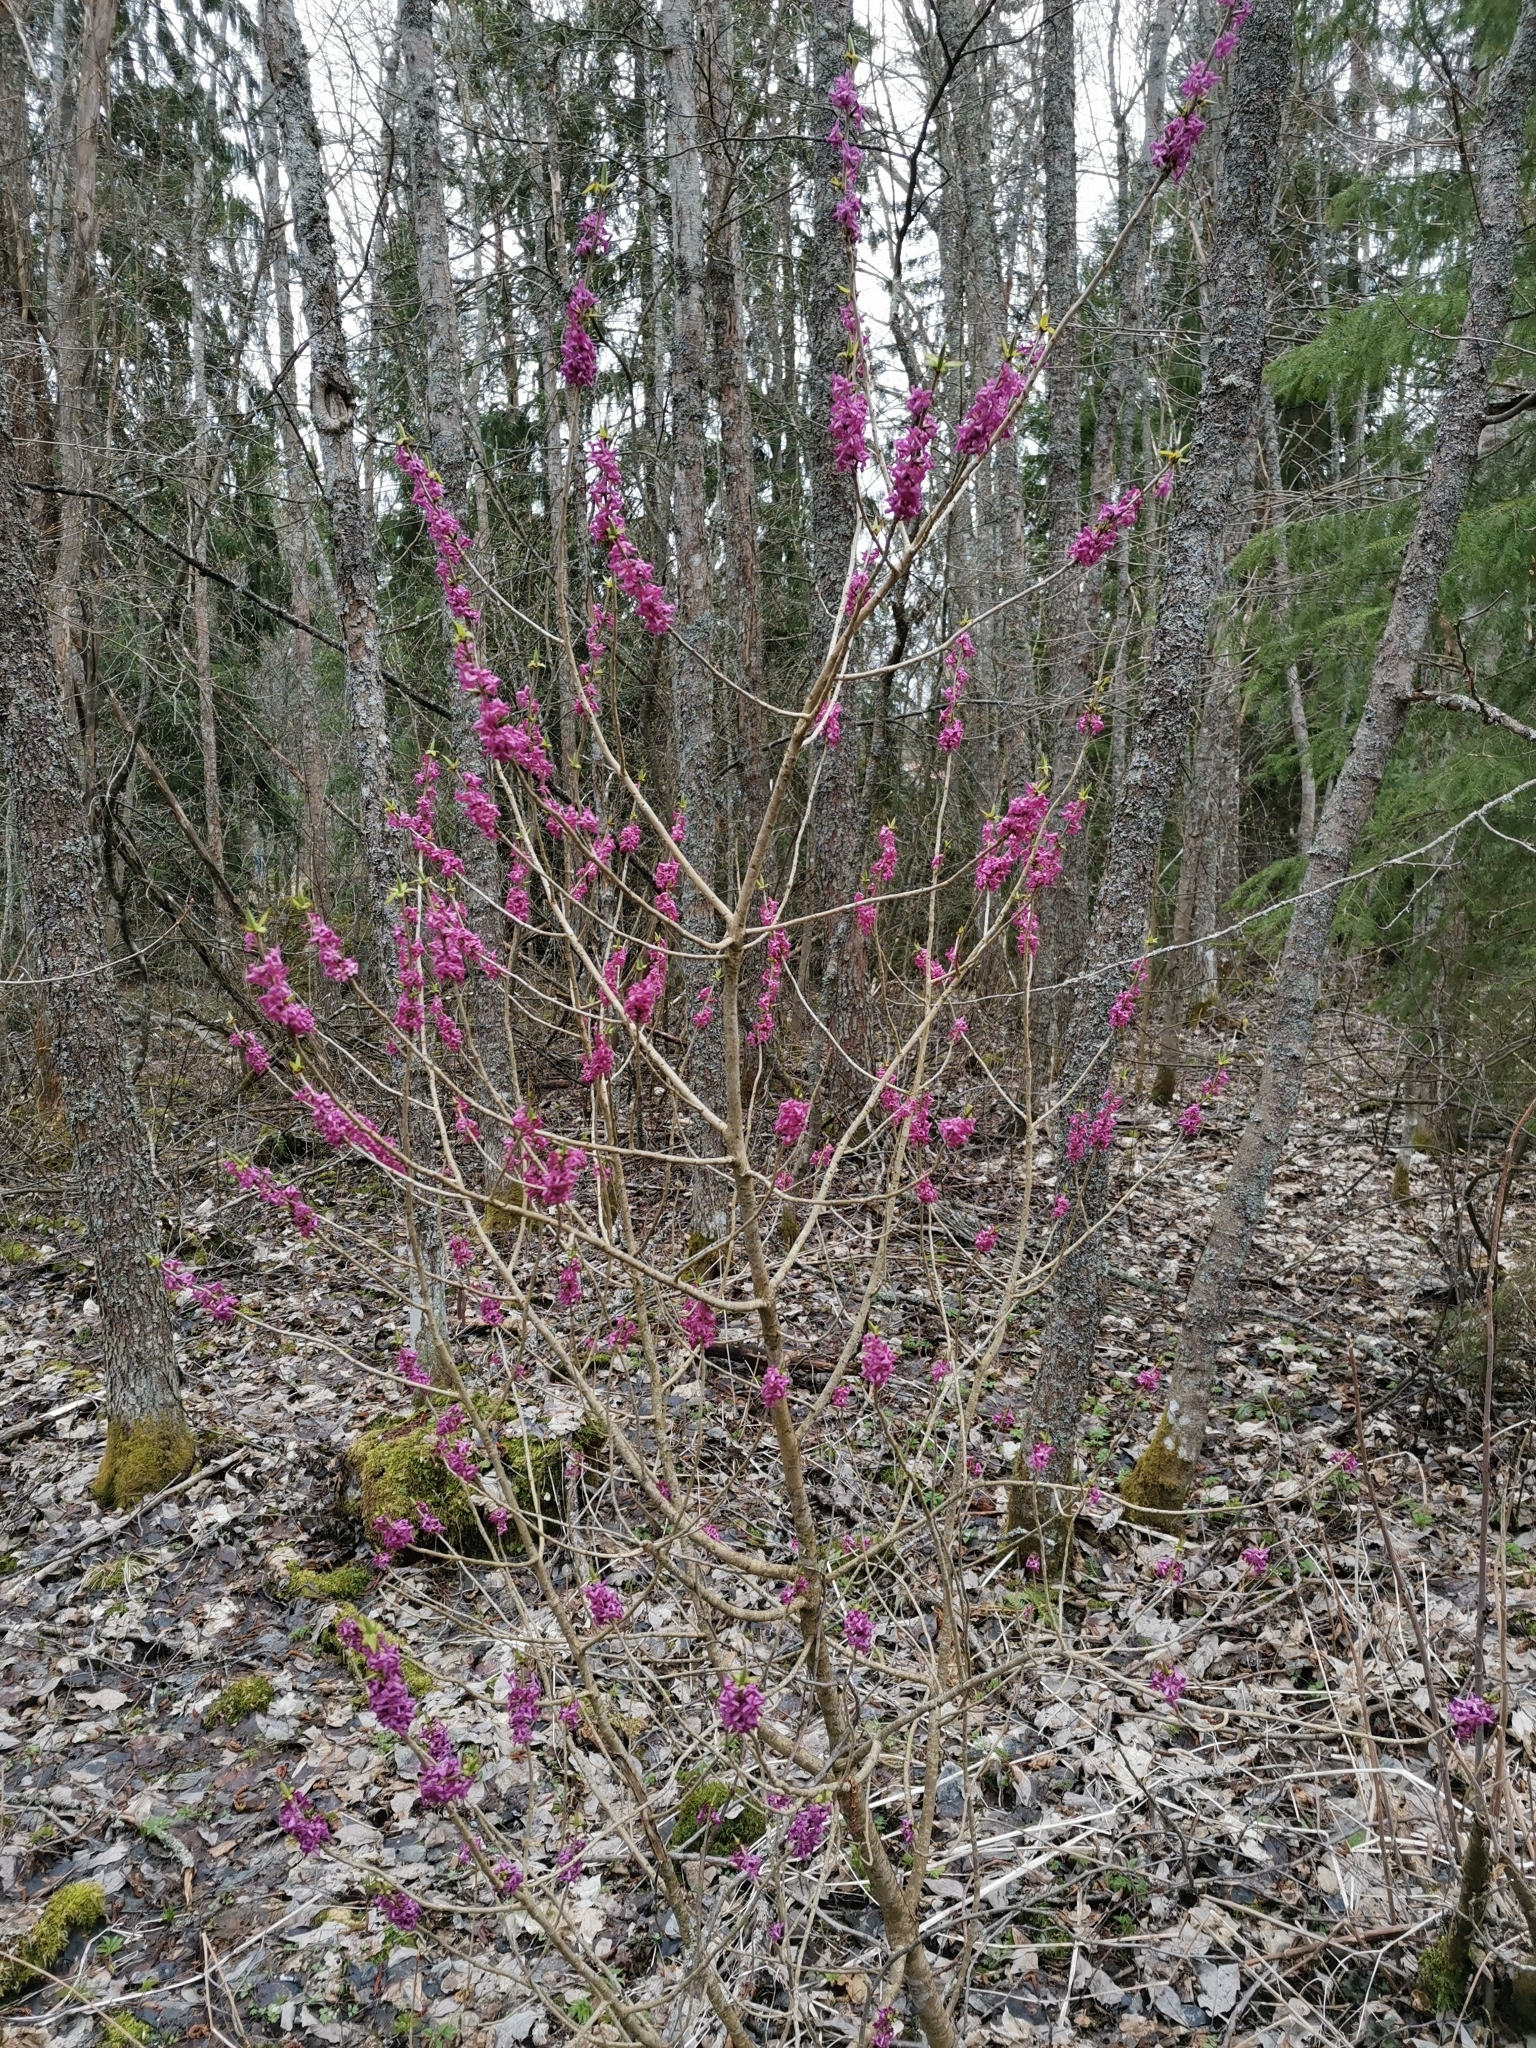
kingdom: Plantae
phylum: Tracheophyta
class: Magnoliopsida
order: Malvales
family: Thymelaeaceae
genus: Daphne
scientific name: Daphne mezereum
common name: Mezereon
